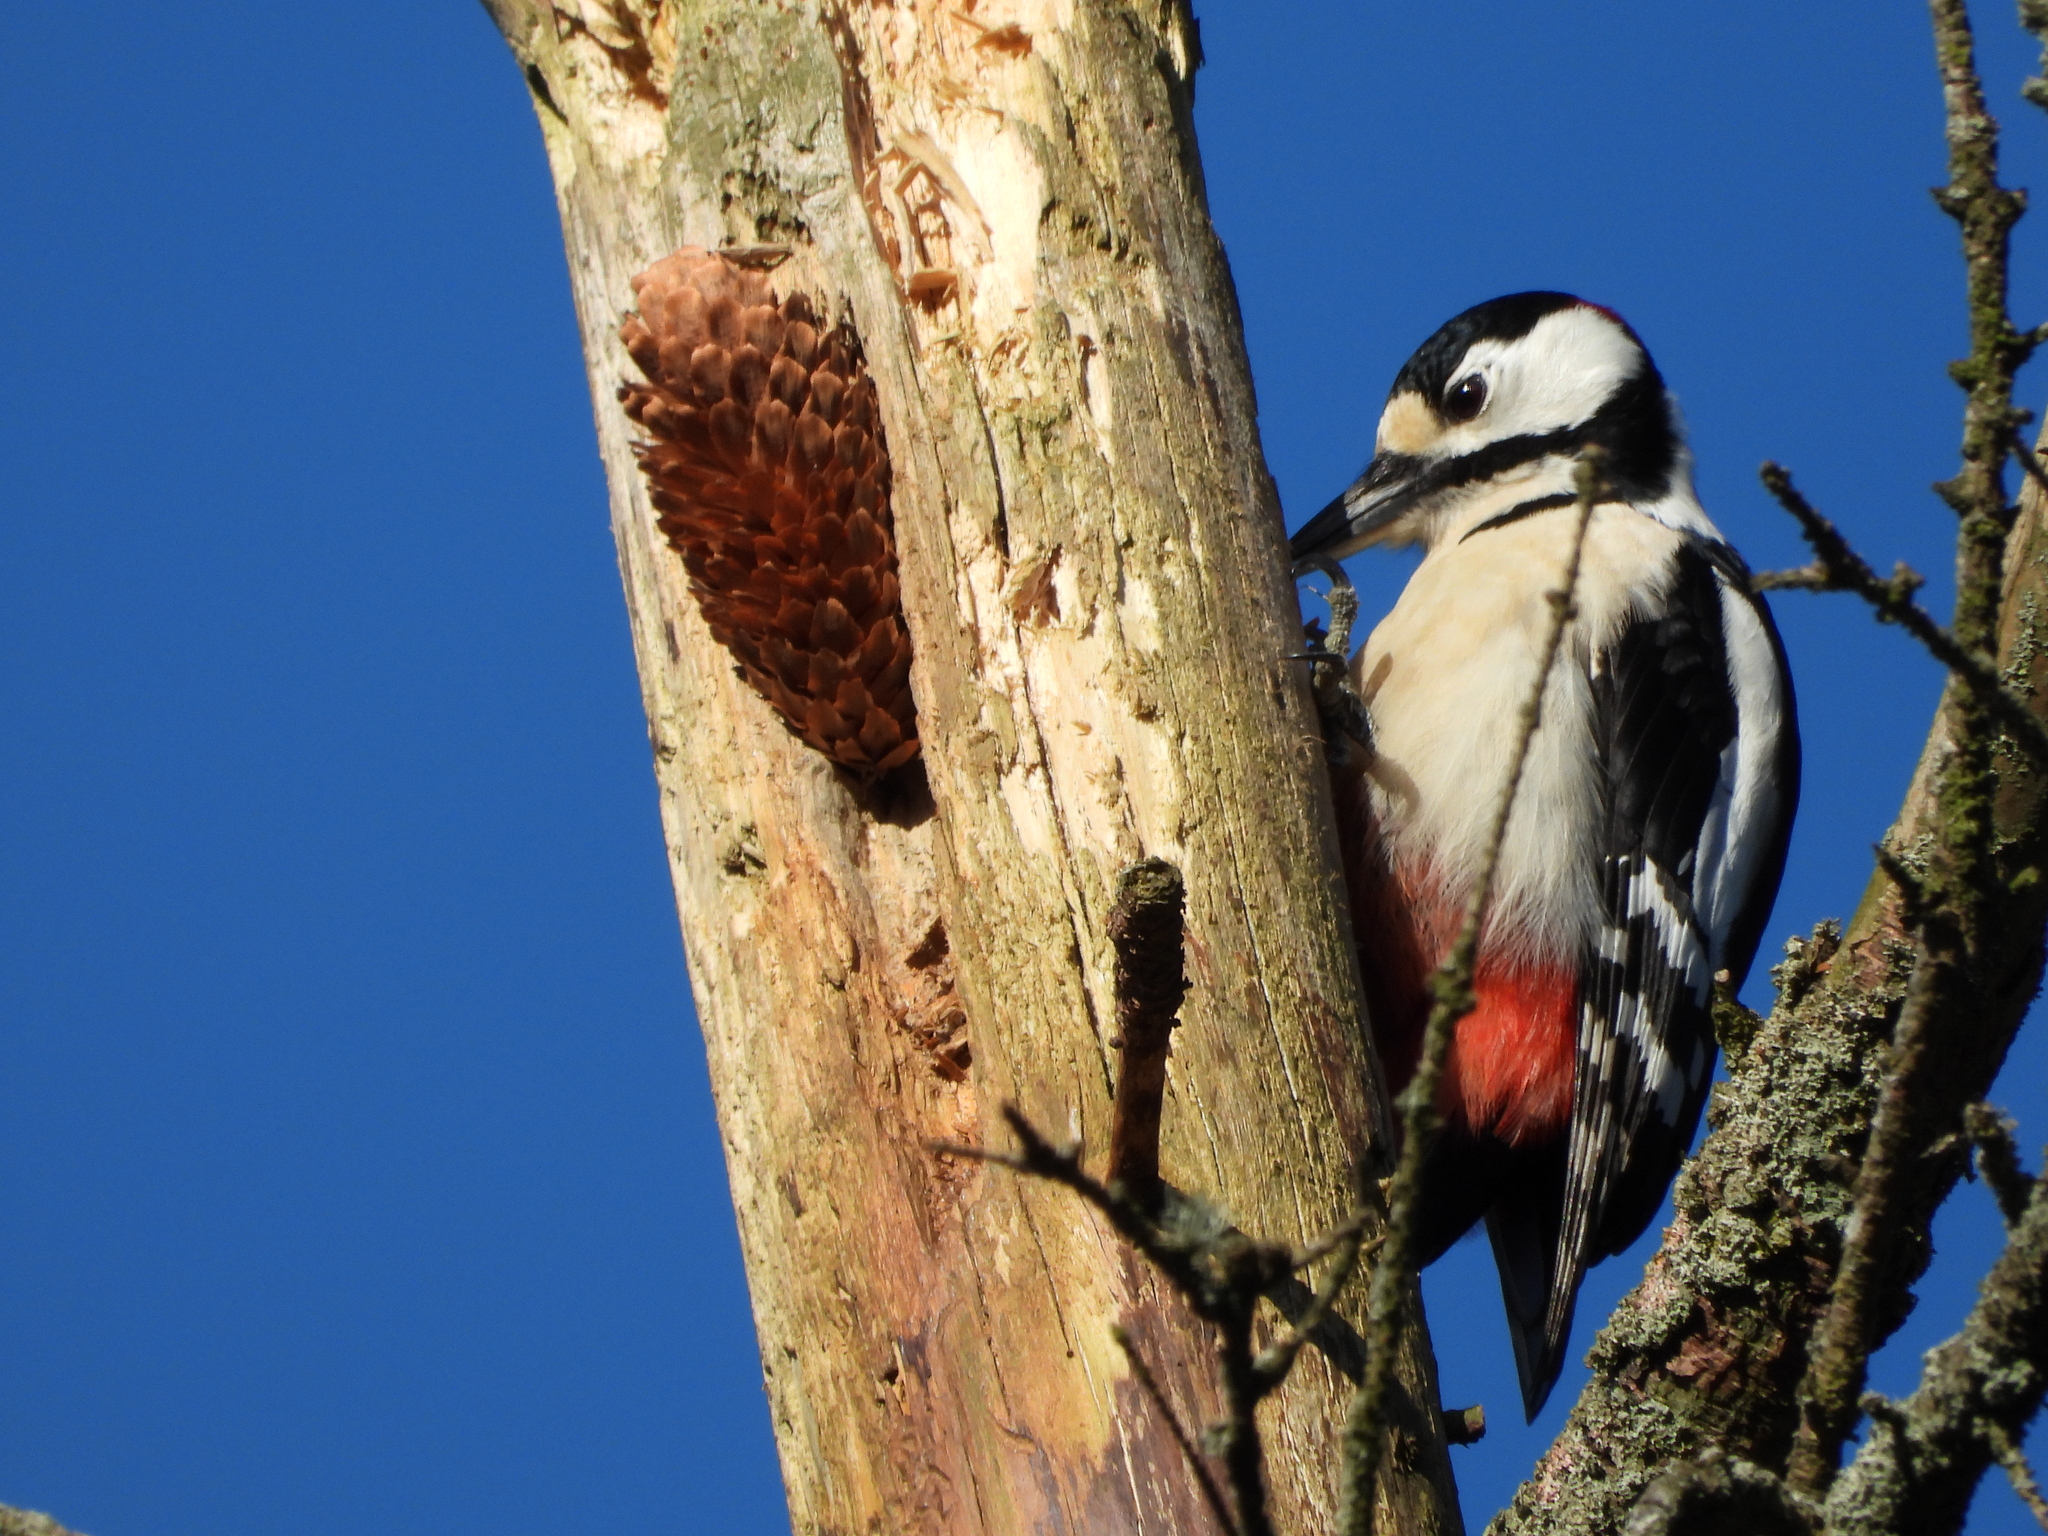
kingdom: Animalia
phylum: Chordata
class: Aves
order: Piciformes
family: Picidae
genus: Dendrocopos
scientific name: Dendrocopos major
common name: Great spotted woodpecker
